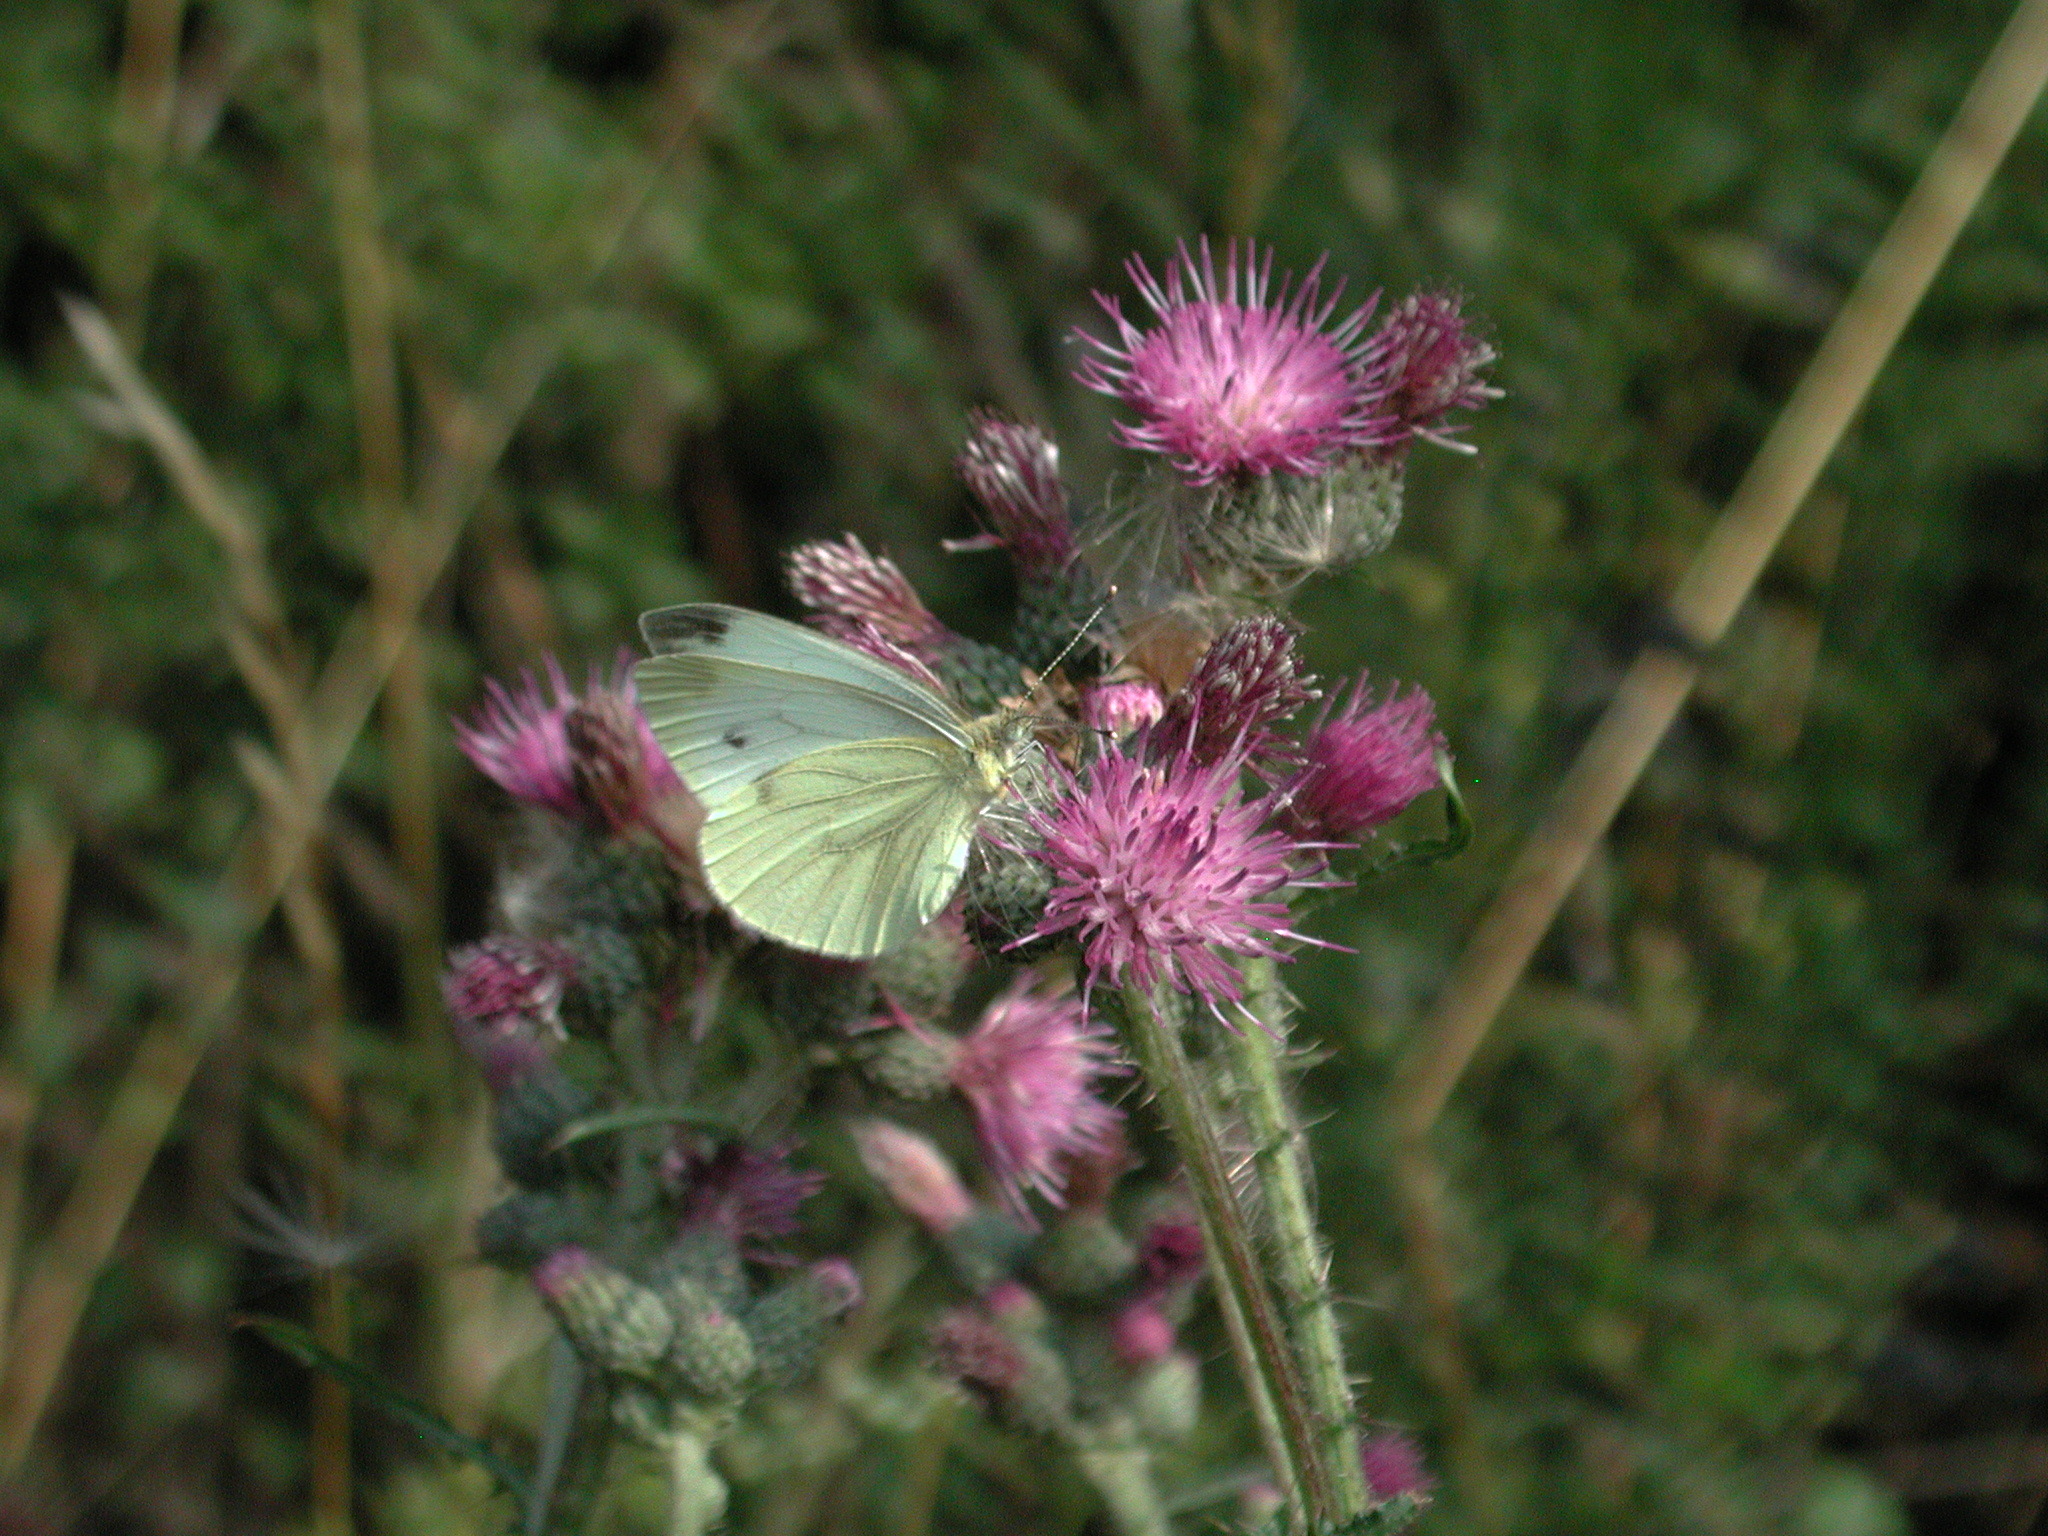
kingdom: Animalia
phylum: Arthropoda
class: Insecta
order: Lepidoptera
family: Pieridae
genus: Pieris
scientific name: Pieris napi
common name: Green-veined white
